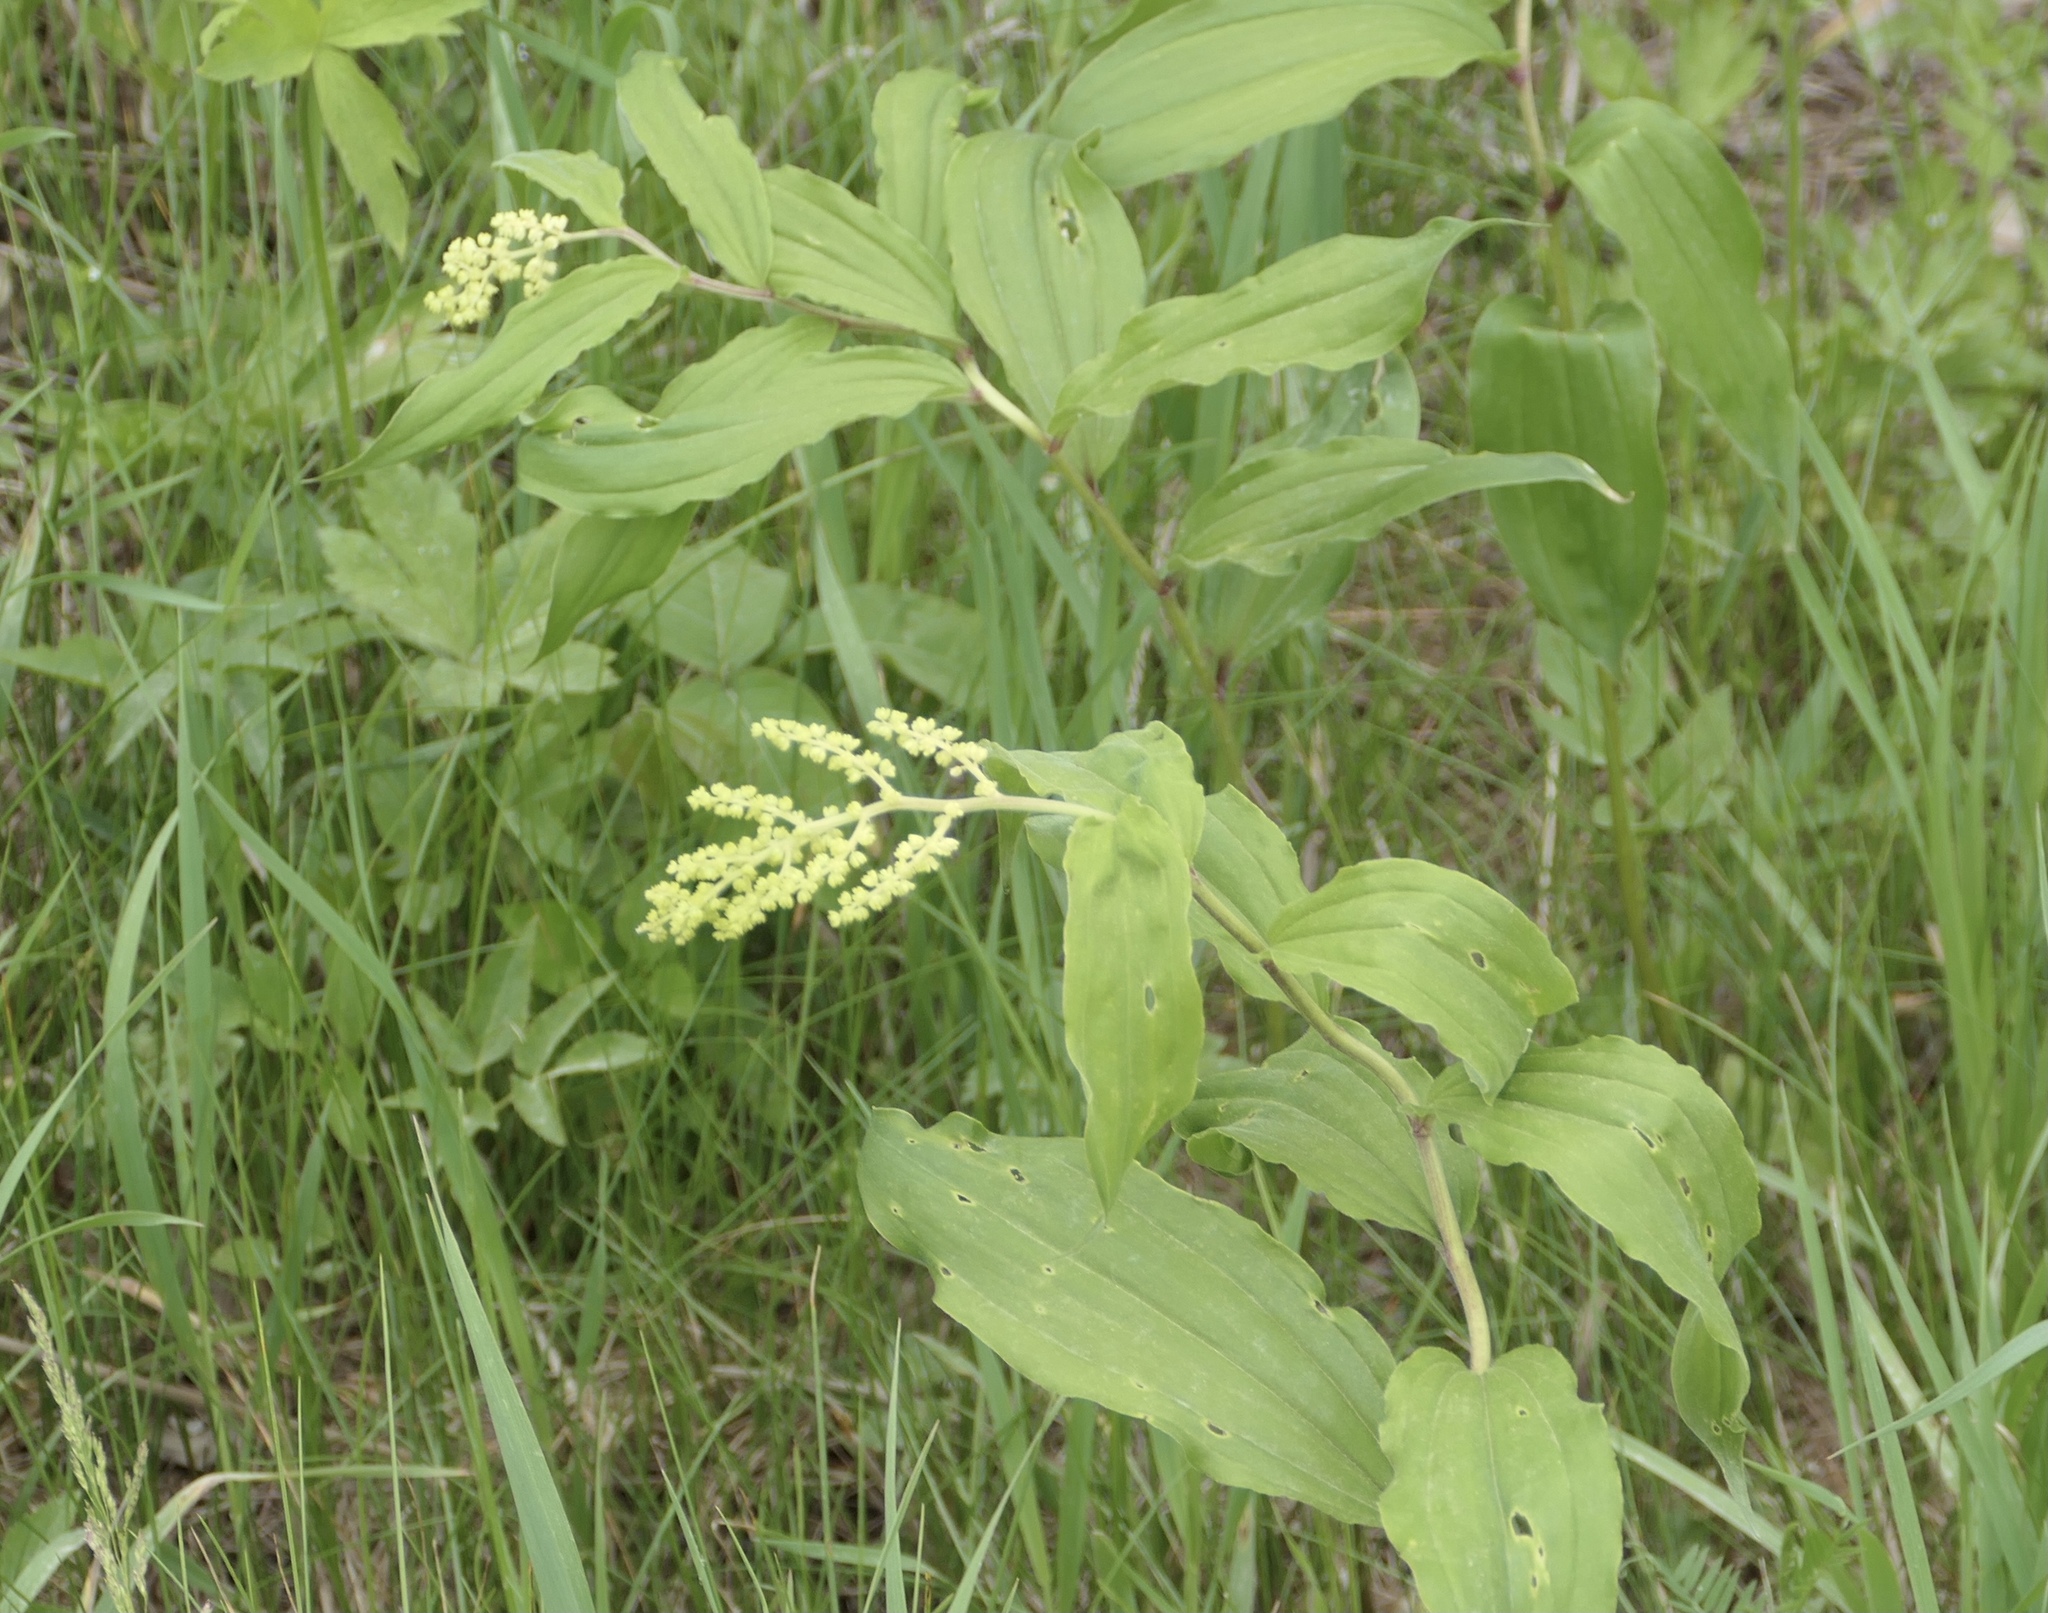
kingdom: Plantae
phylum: Tracheophyta
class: Liliopsida
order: Asparagales
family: Asparagaceae
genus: Maianthemum
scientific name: Maianthemum racemosum
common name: False spikenard
